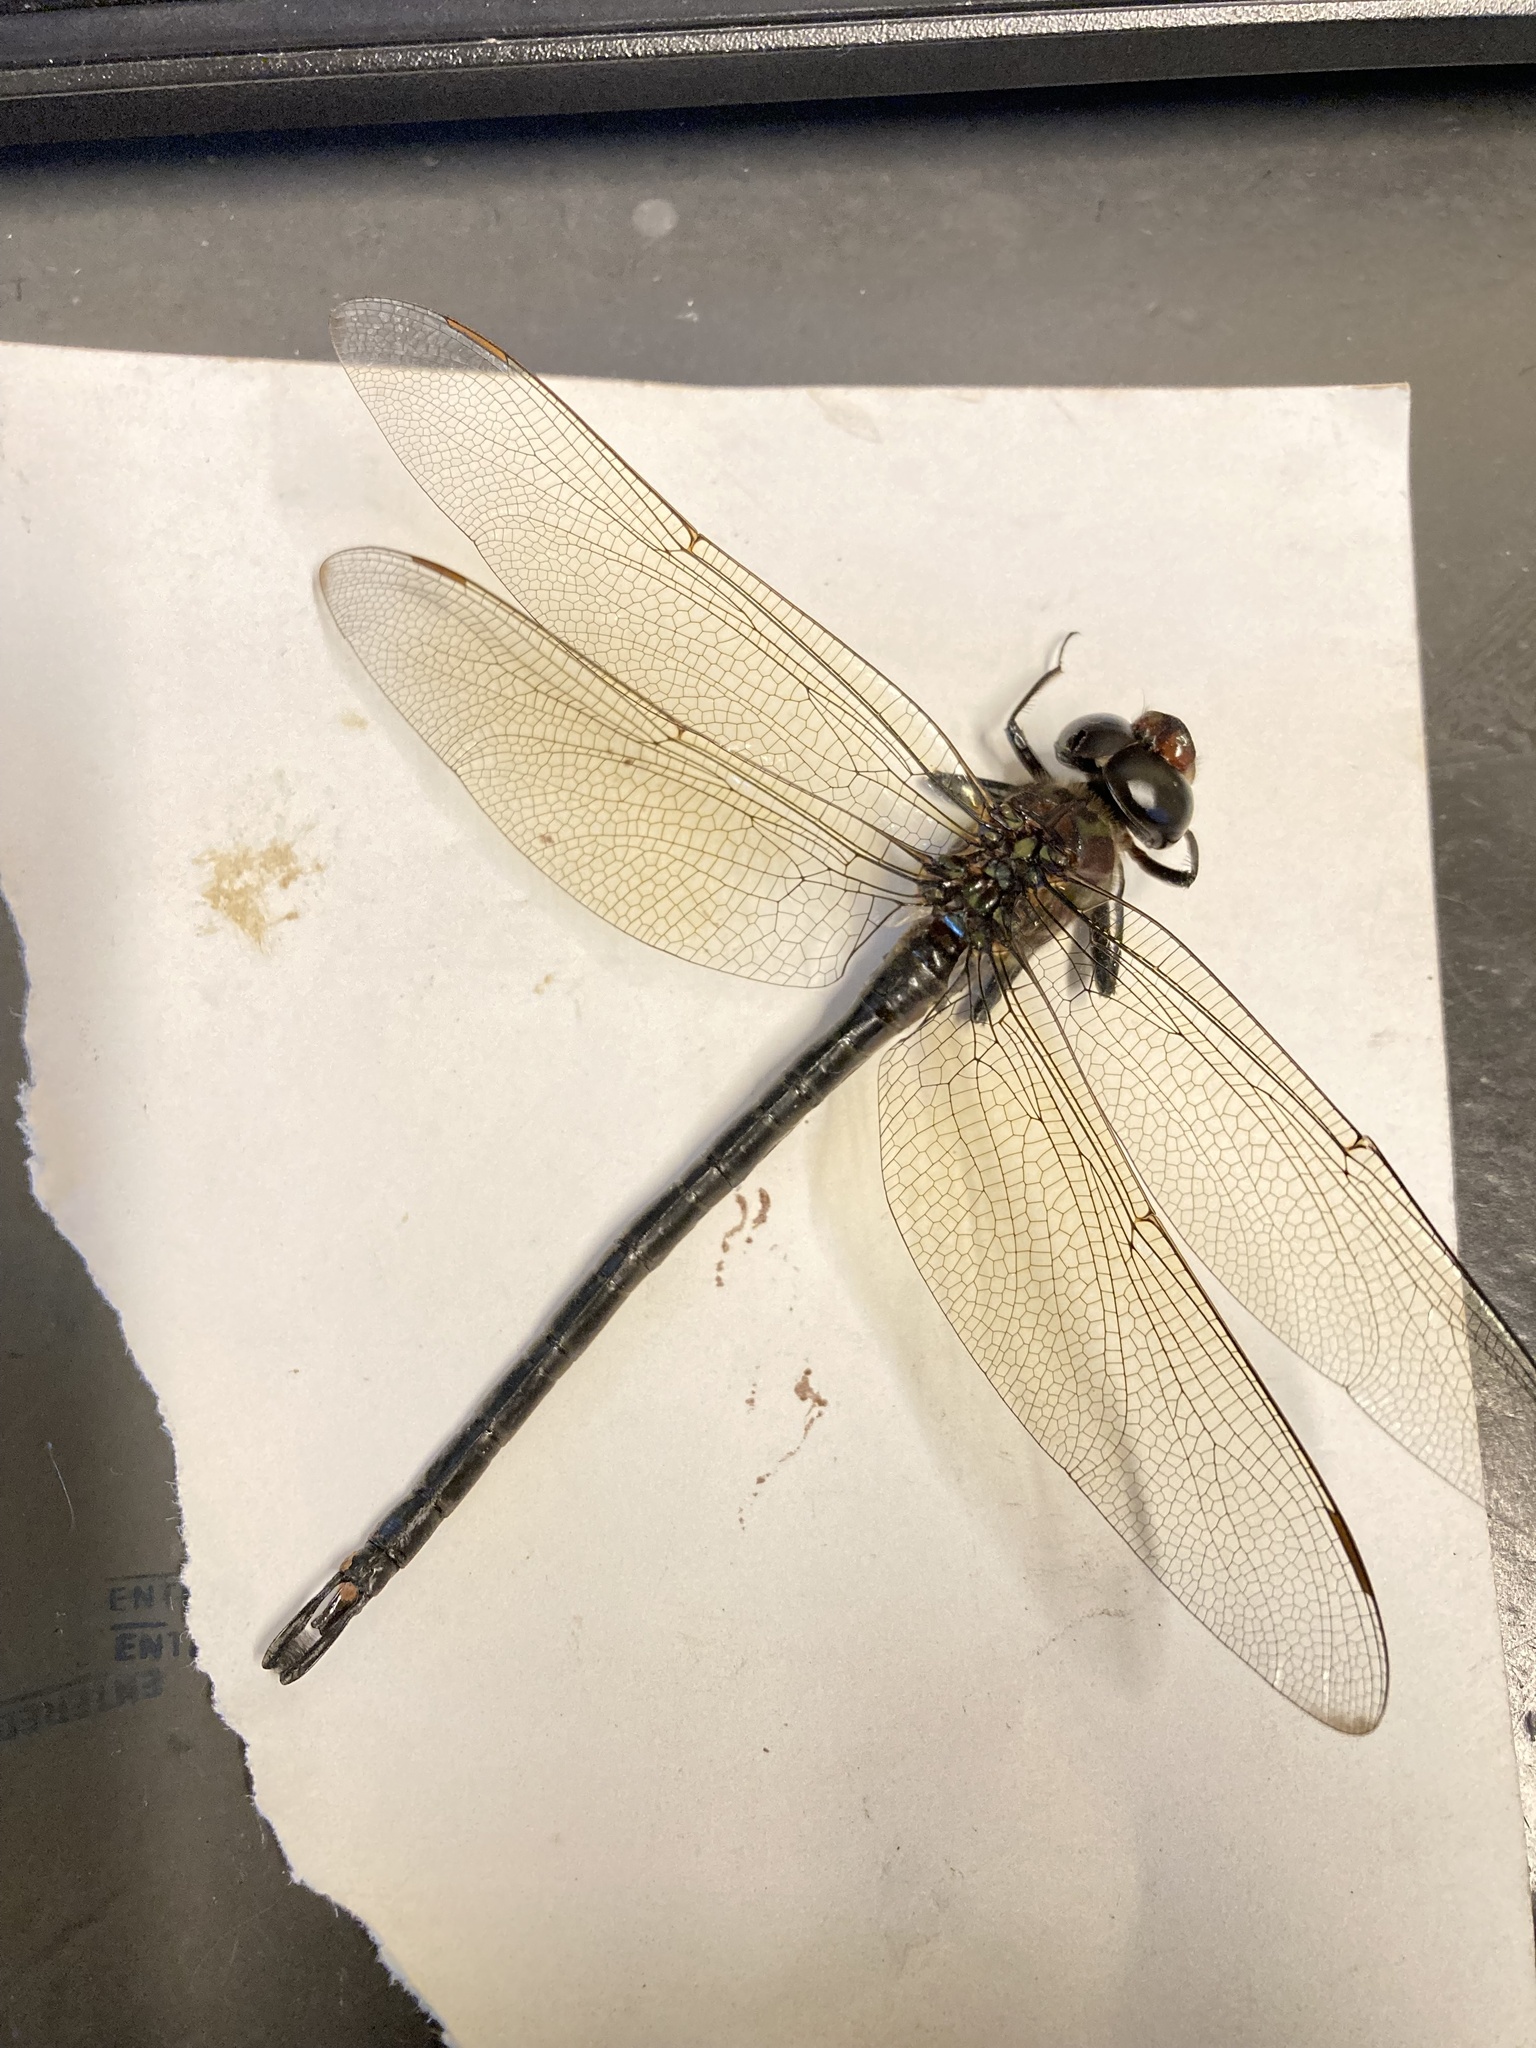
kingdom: Animalia
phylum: Arthropoda
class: Insecta
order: Odonata
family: Aeshnidae
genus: Epiaeschna
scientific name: Epiaeschna heros
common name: Swamp darner
